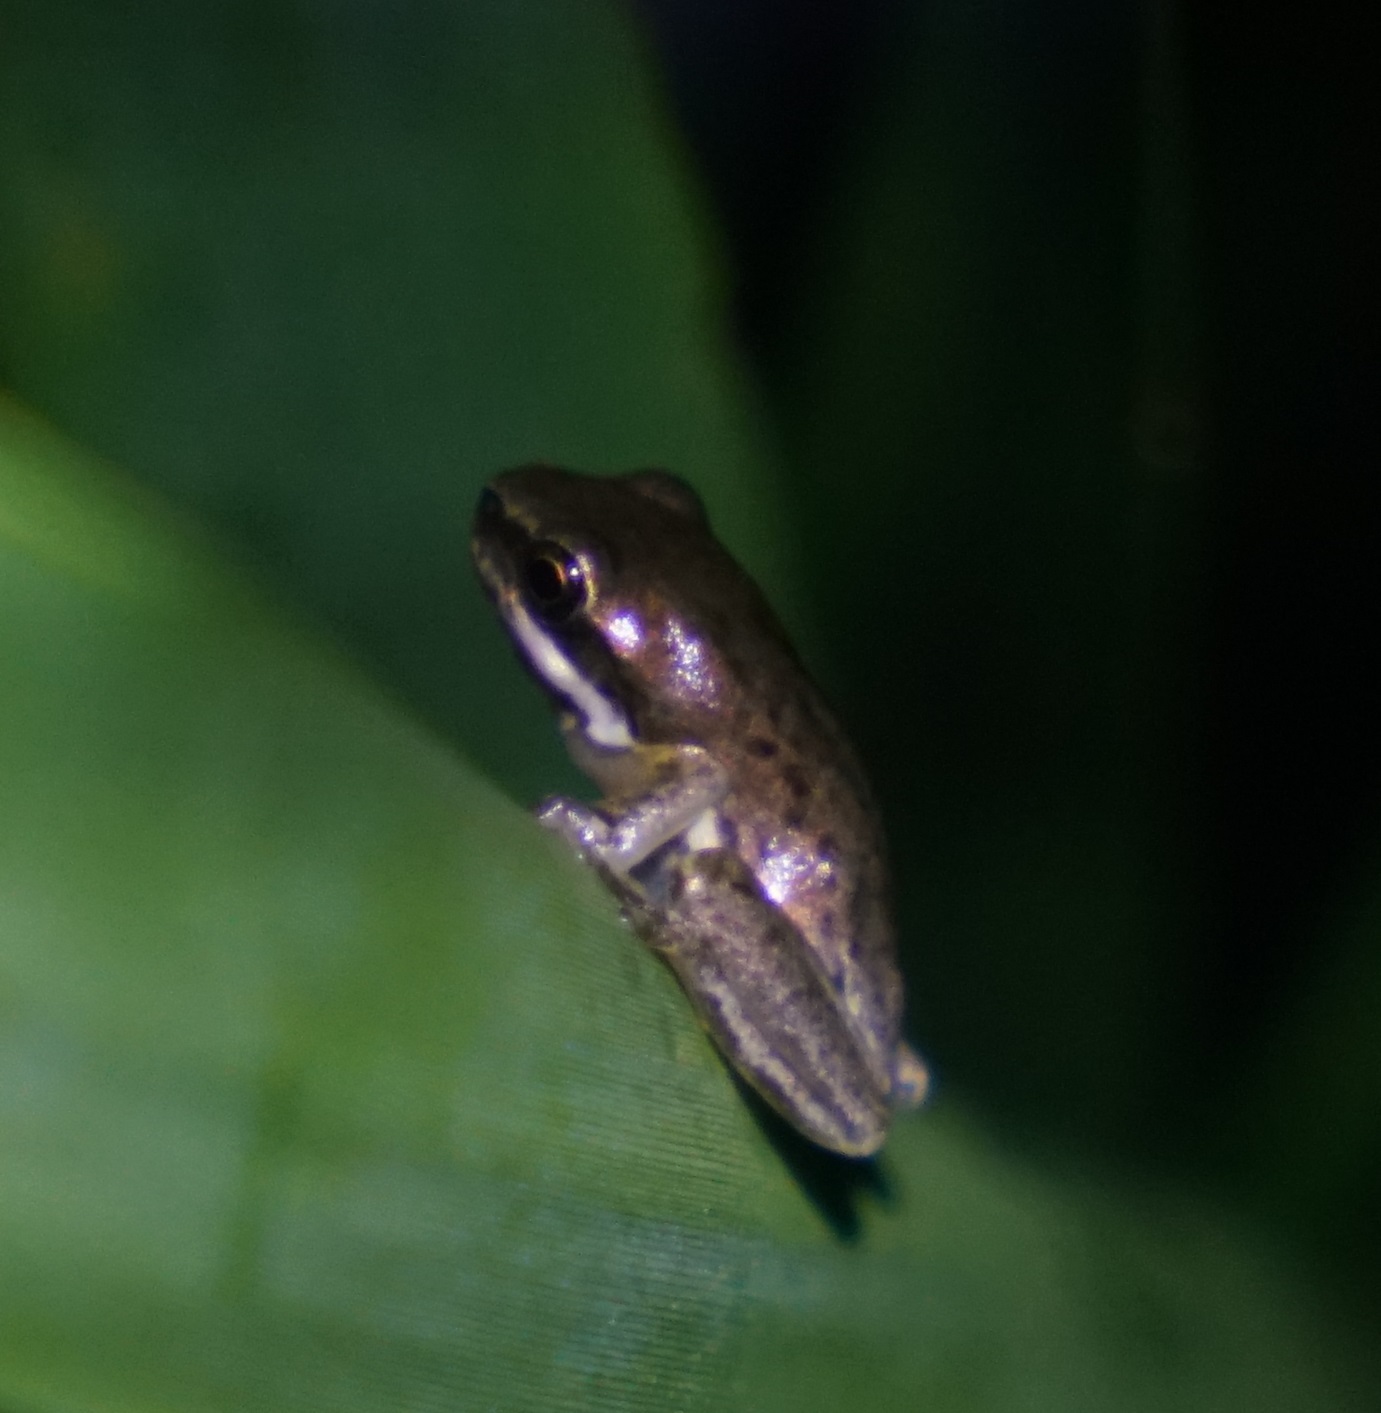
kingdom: Animalia
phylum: Chordata
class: Amphibia
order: Anura
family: Pelodryadidae
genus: Litoria
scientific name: Litoria fallax
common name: Eastern dwarf treefrog
